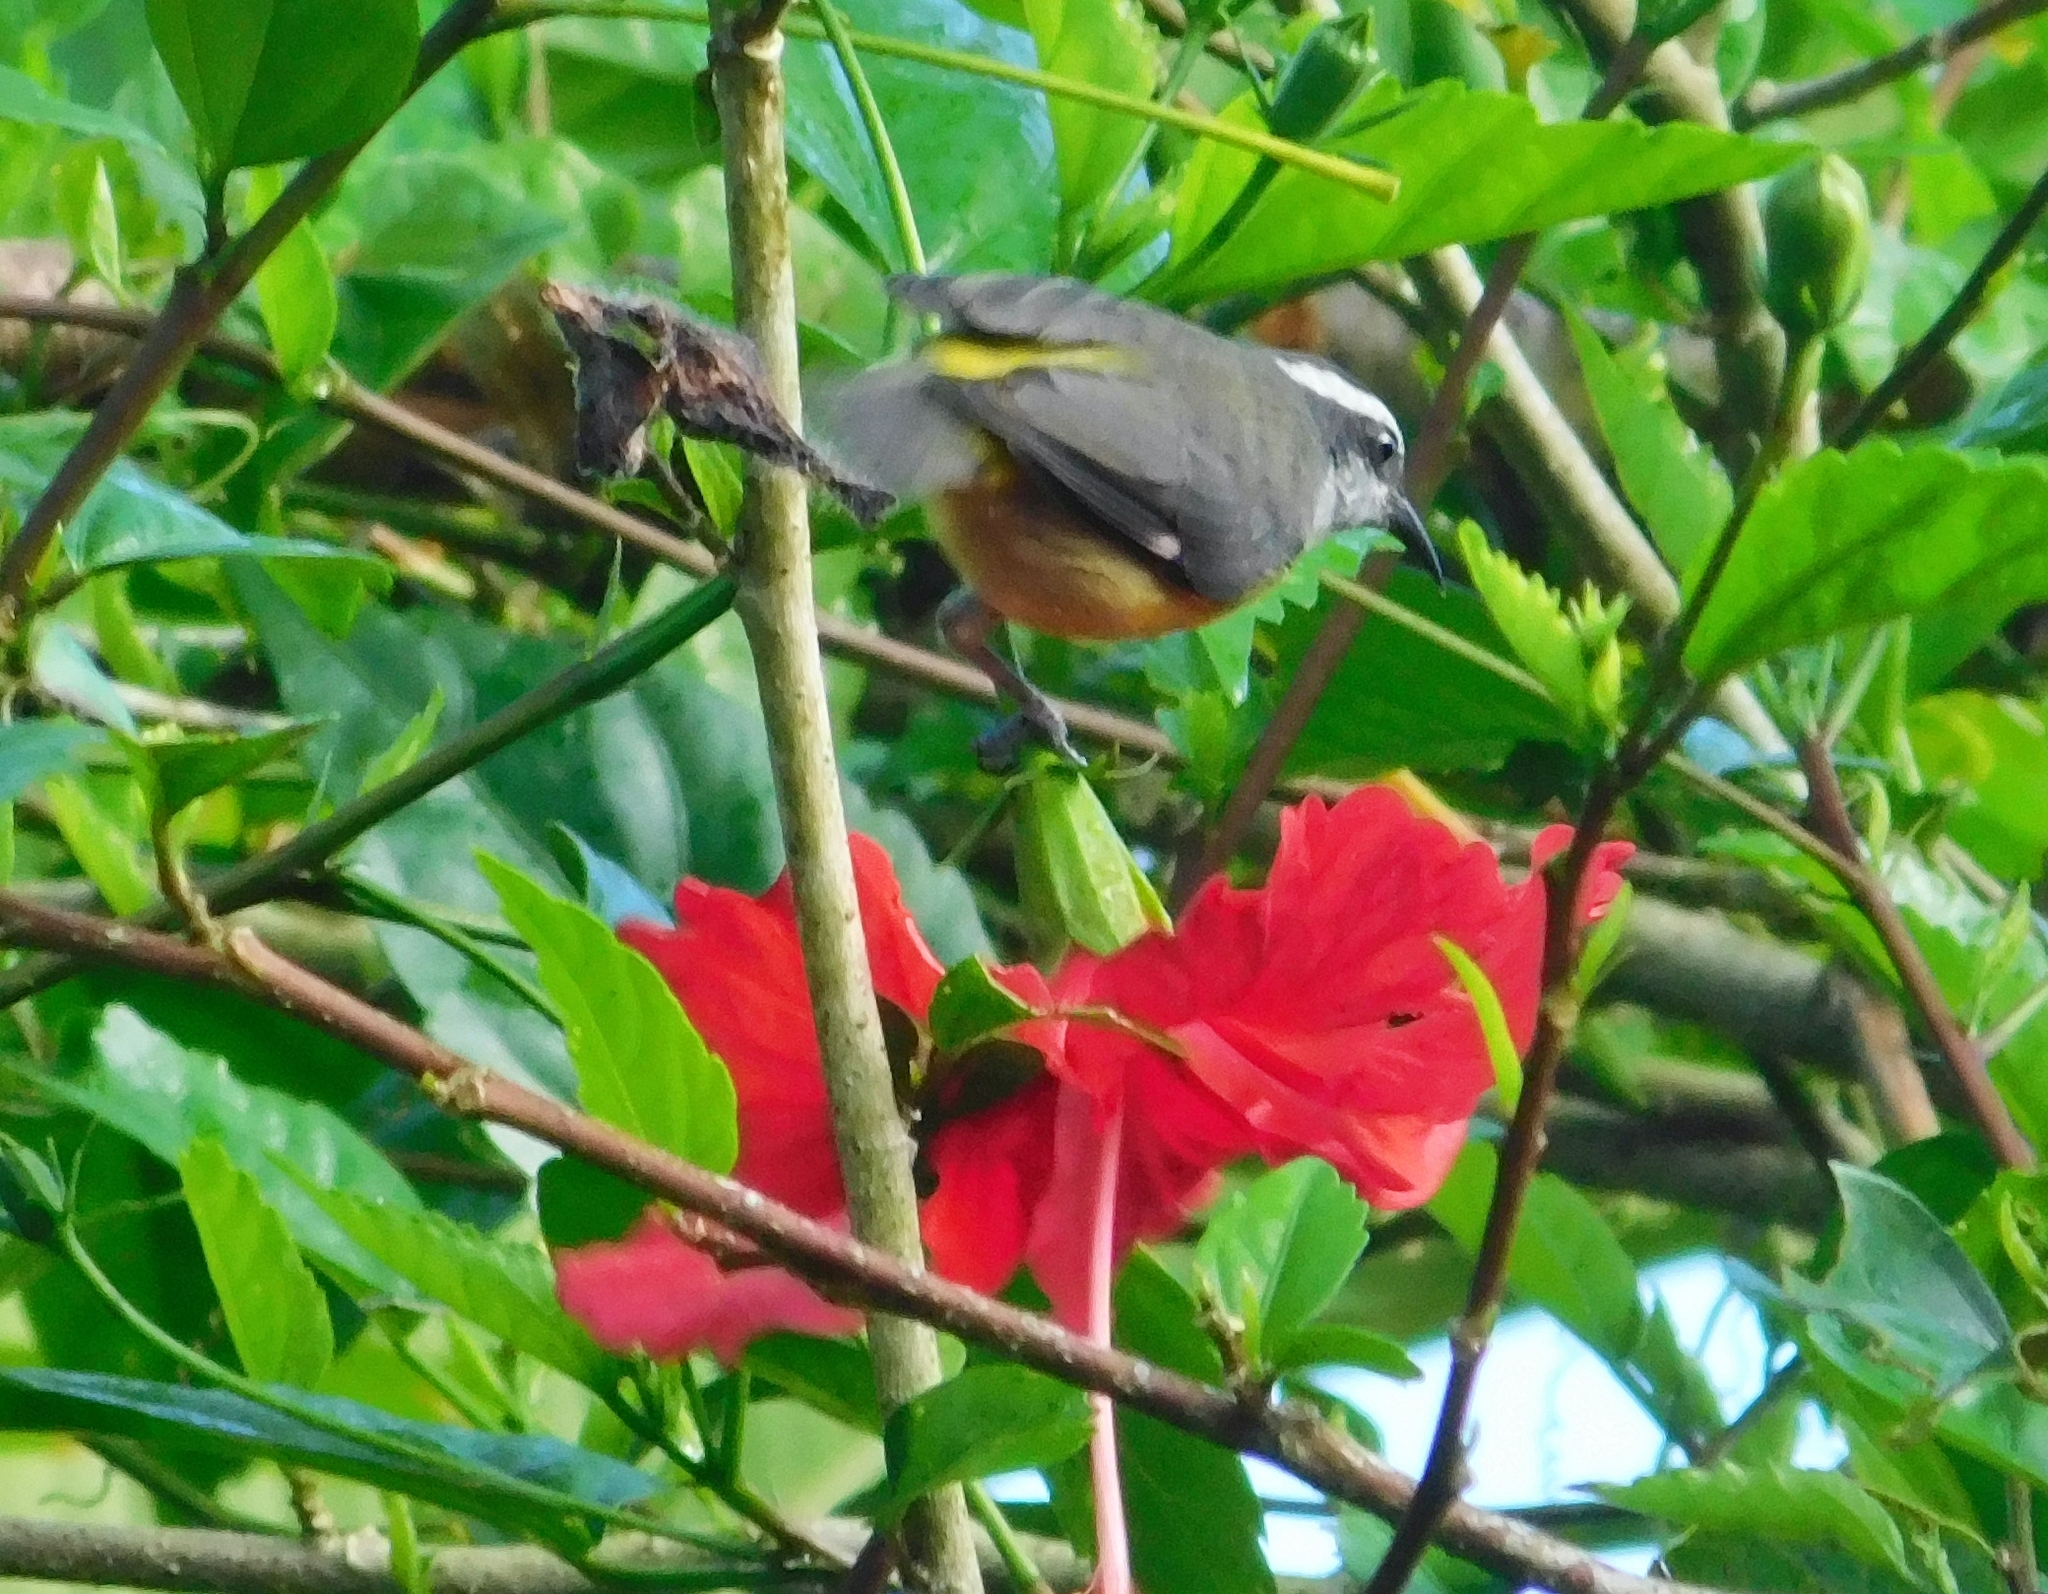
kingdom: Animalia
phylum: Chordata
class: Aves
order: Passeriformes
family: Thraupidae
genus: Coereba
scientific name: Coereba flaveola
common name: Bananaquit
